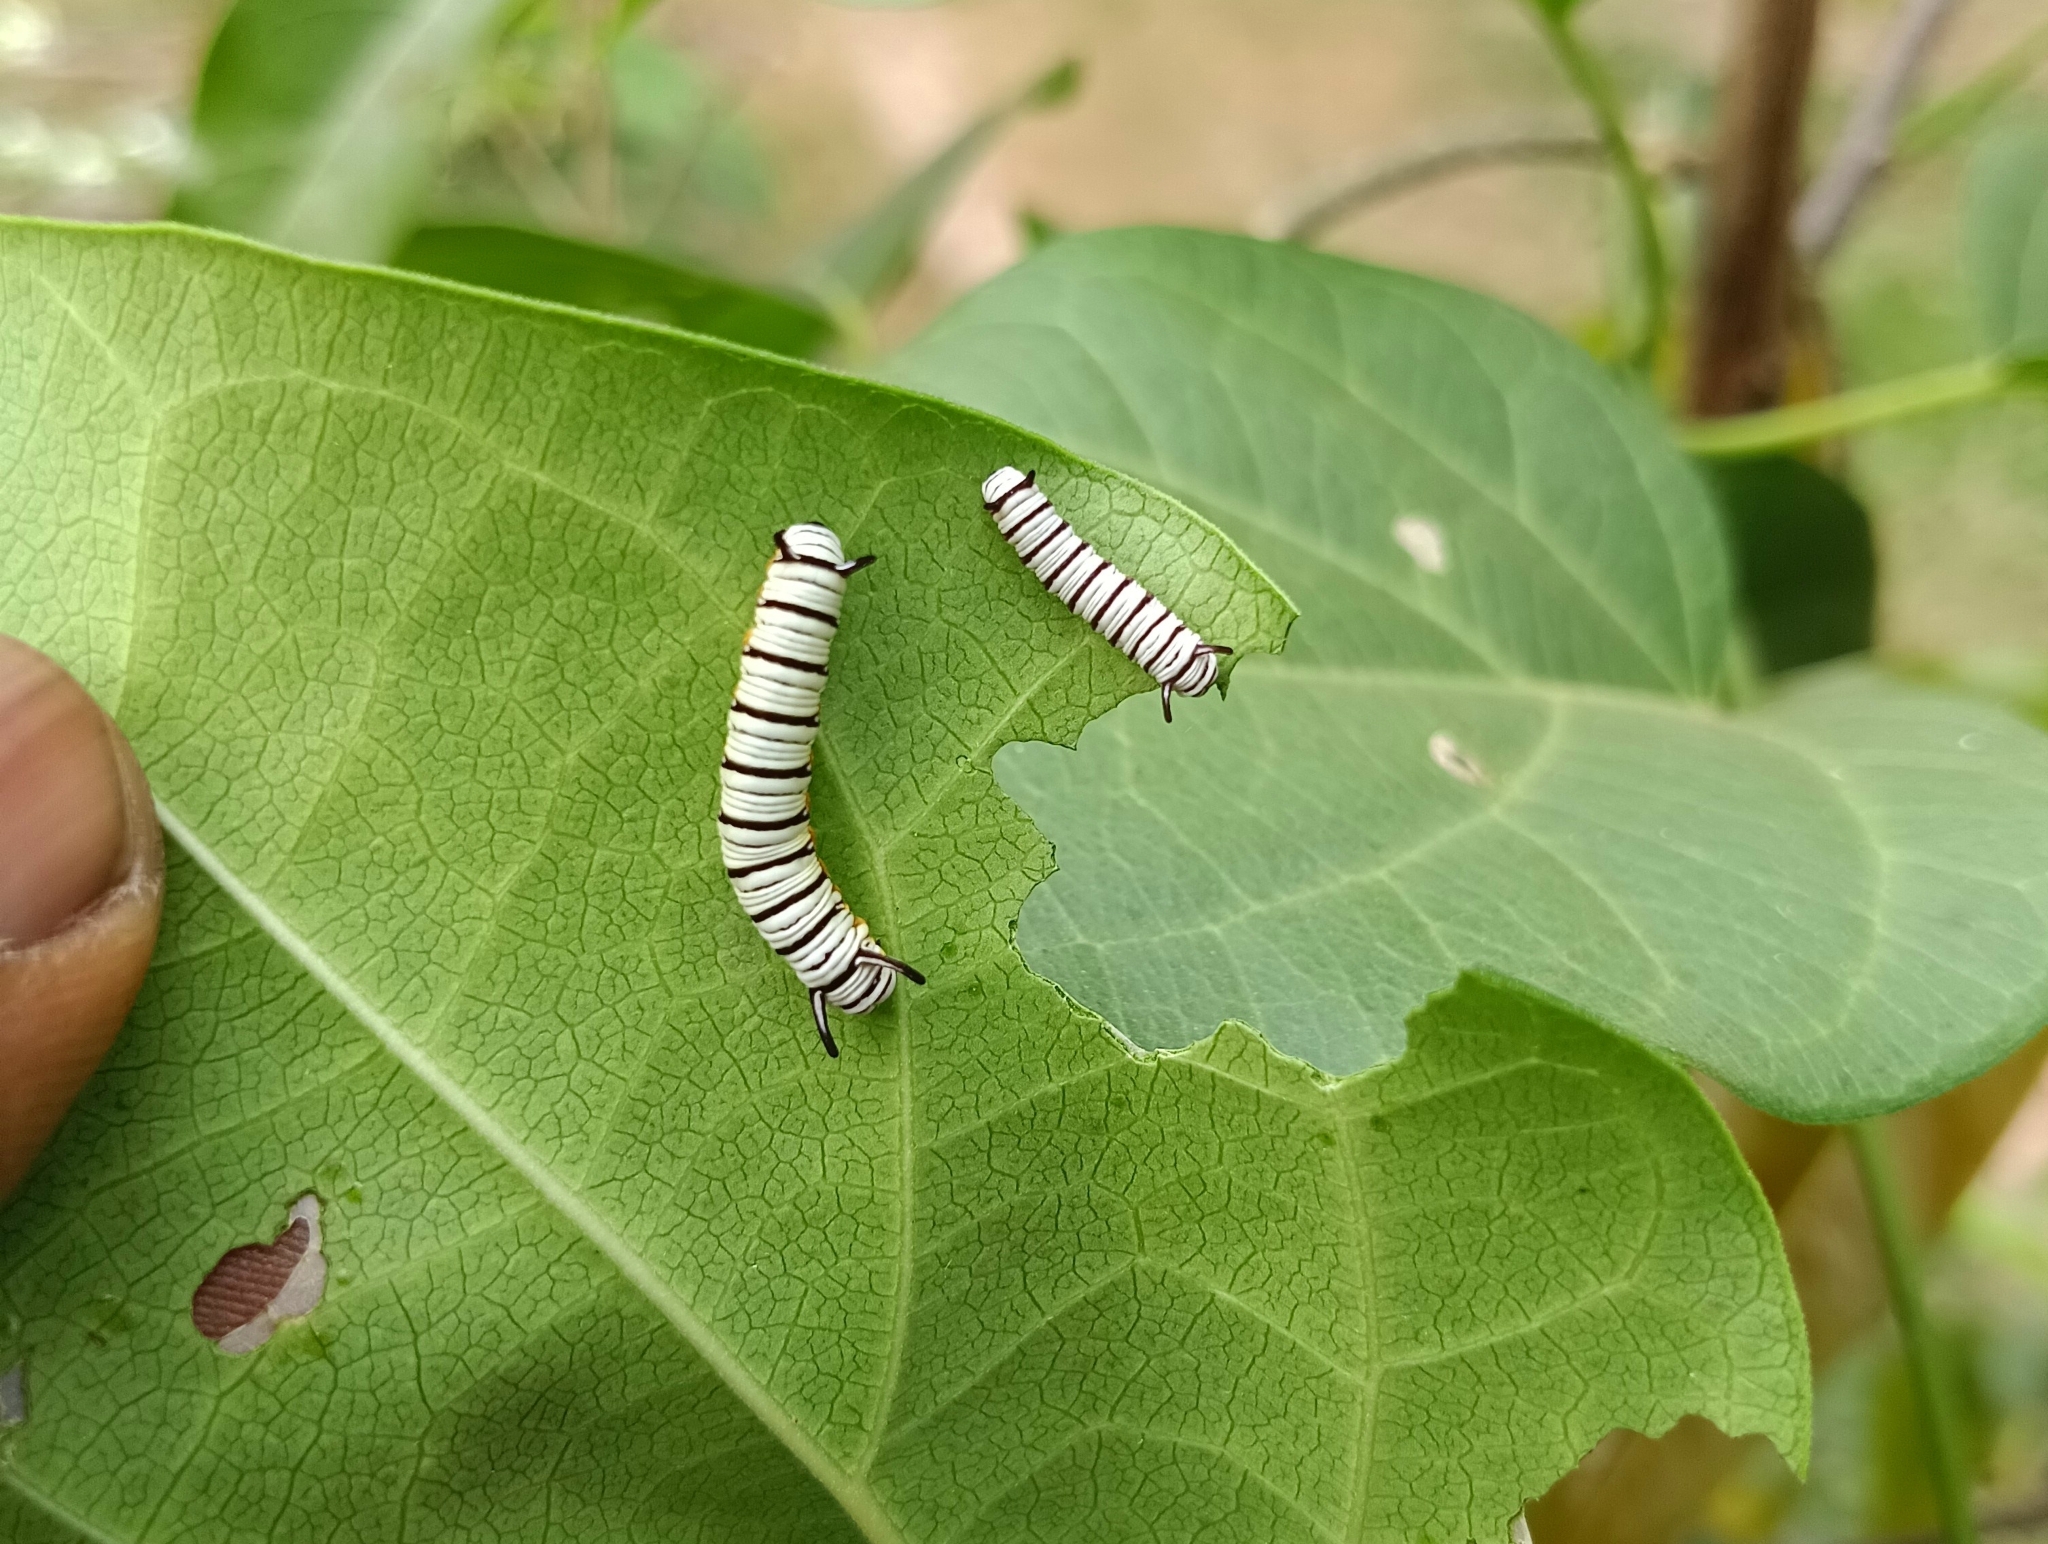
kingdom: Animalia
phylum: Arthropoda
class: Insecta
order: Lepidoptera
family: Nymphalidae
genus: Tirumala
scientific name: Tirumala limniace
